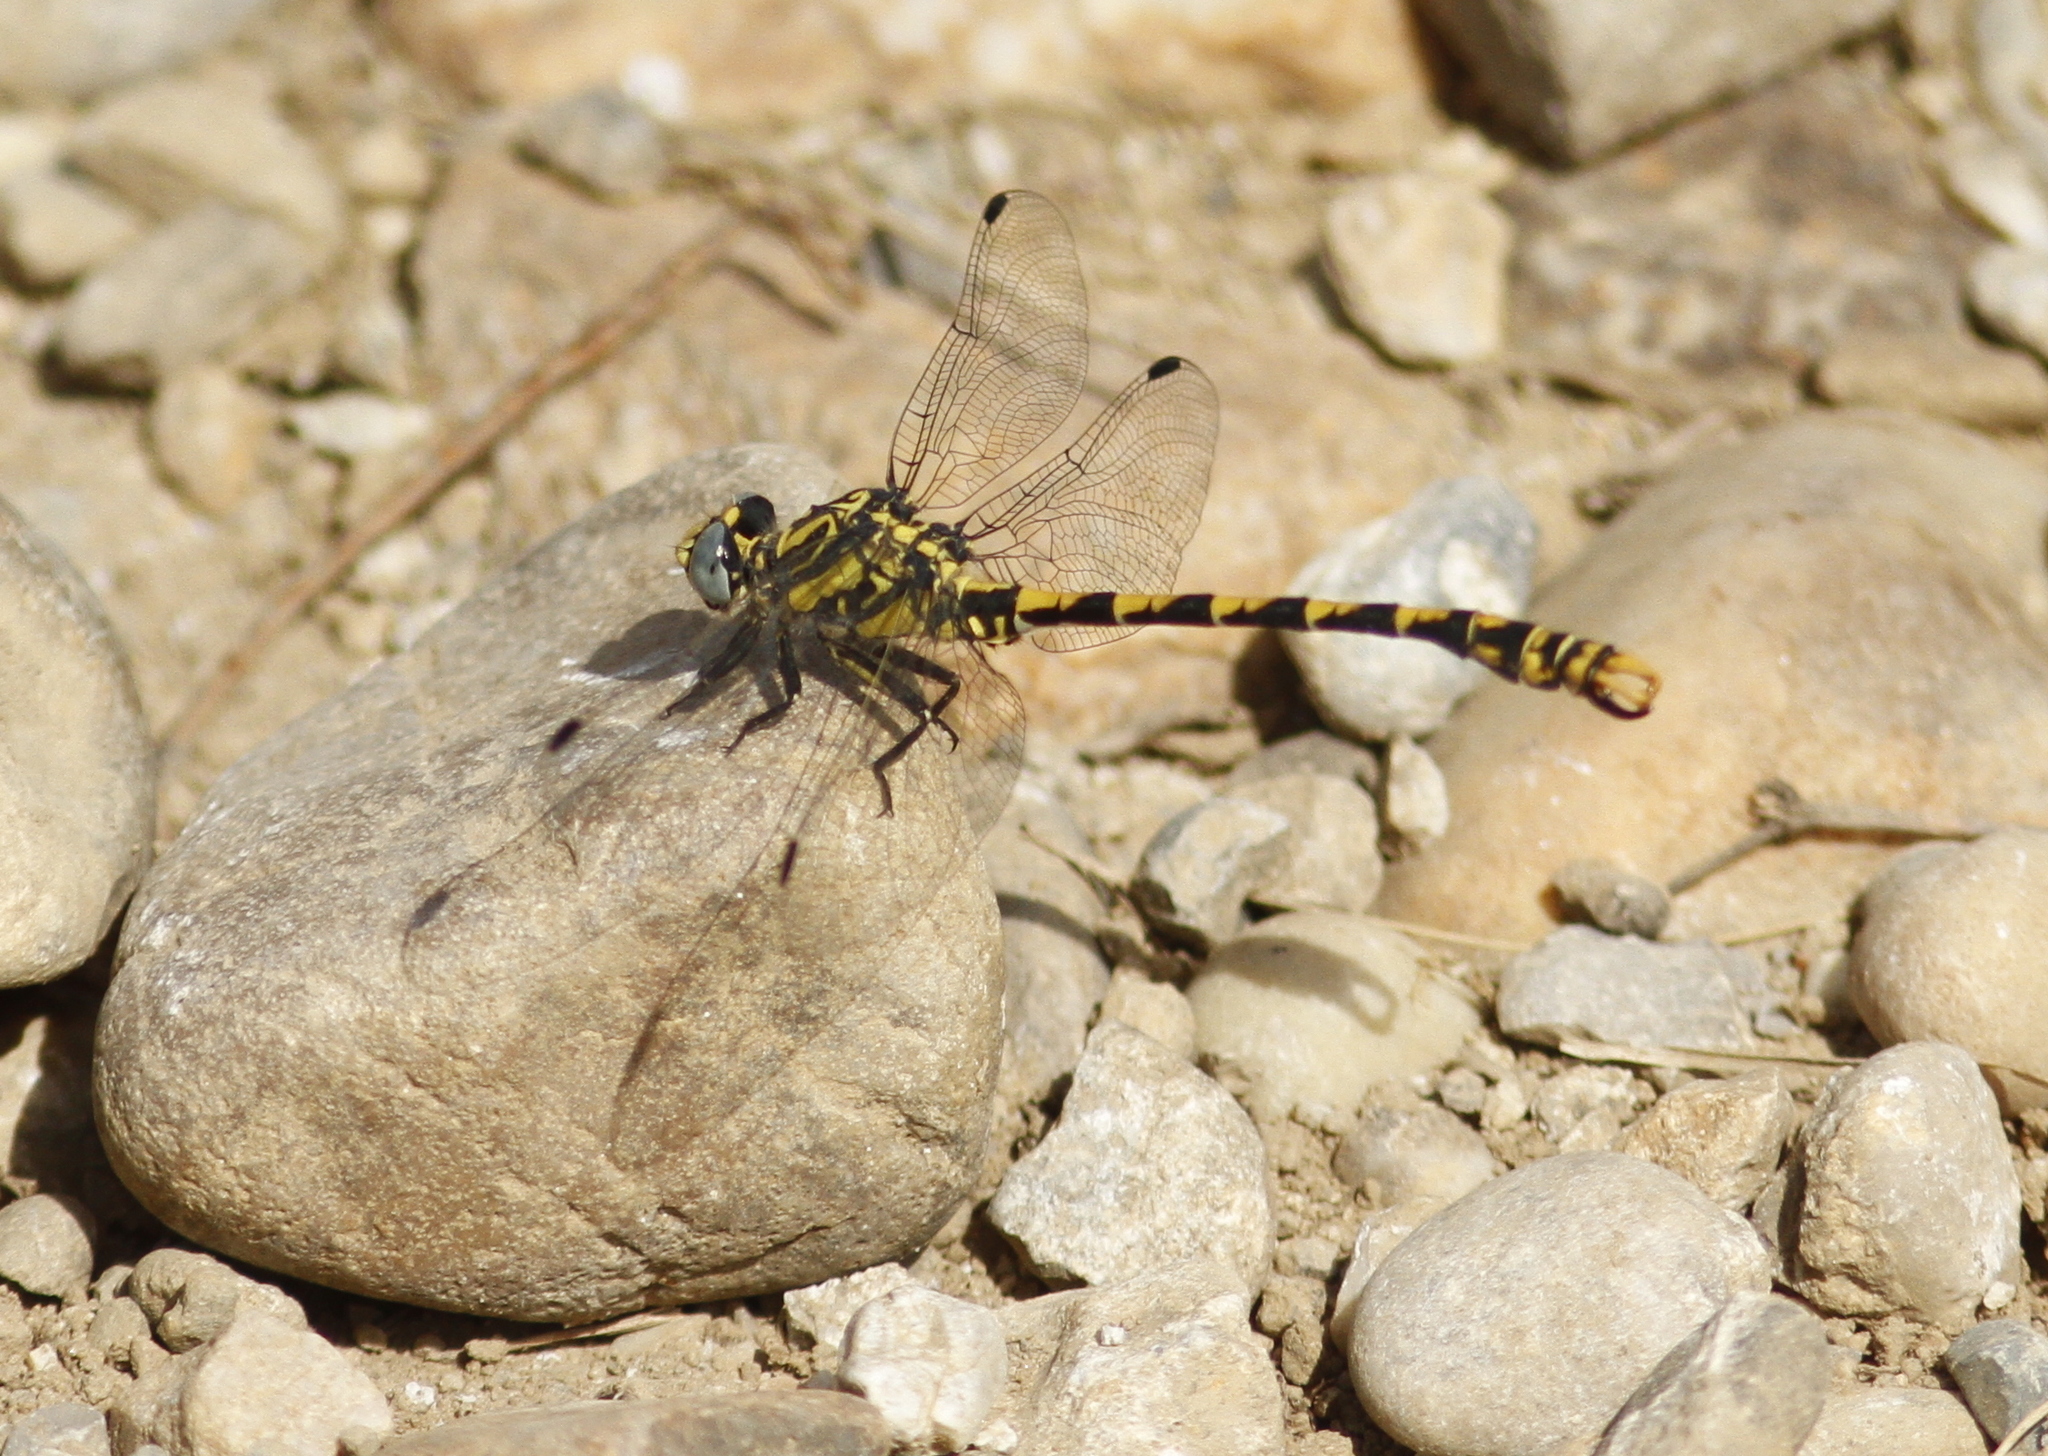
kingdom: Animalia
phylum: Arthropoda
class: Insecta
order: Odonata
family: Gomphidae
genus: Onychogomphus
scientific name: Onychogomphus uncatus
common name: Large pincertail
